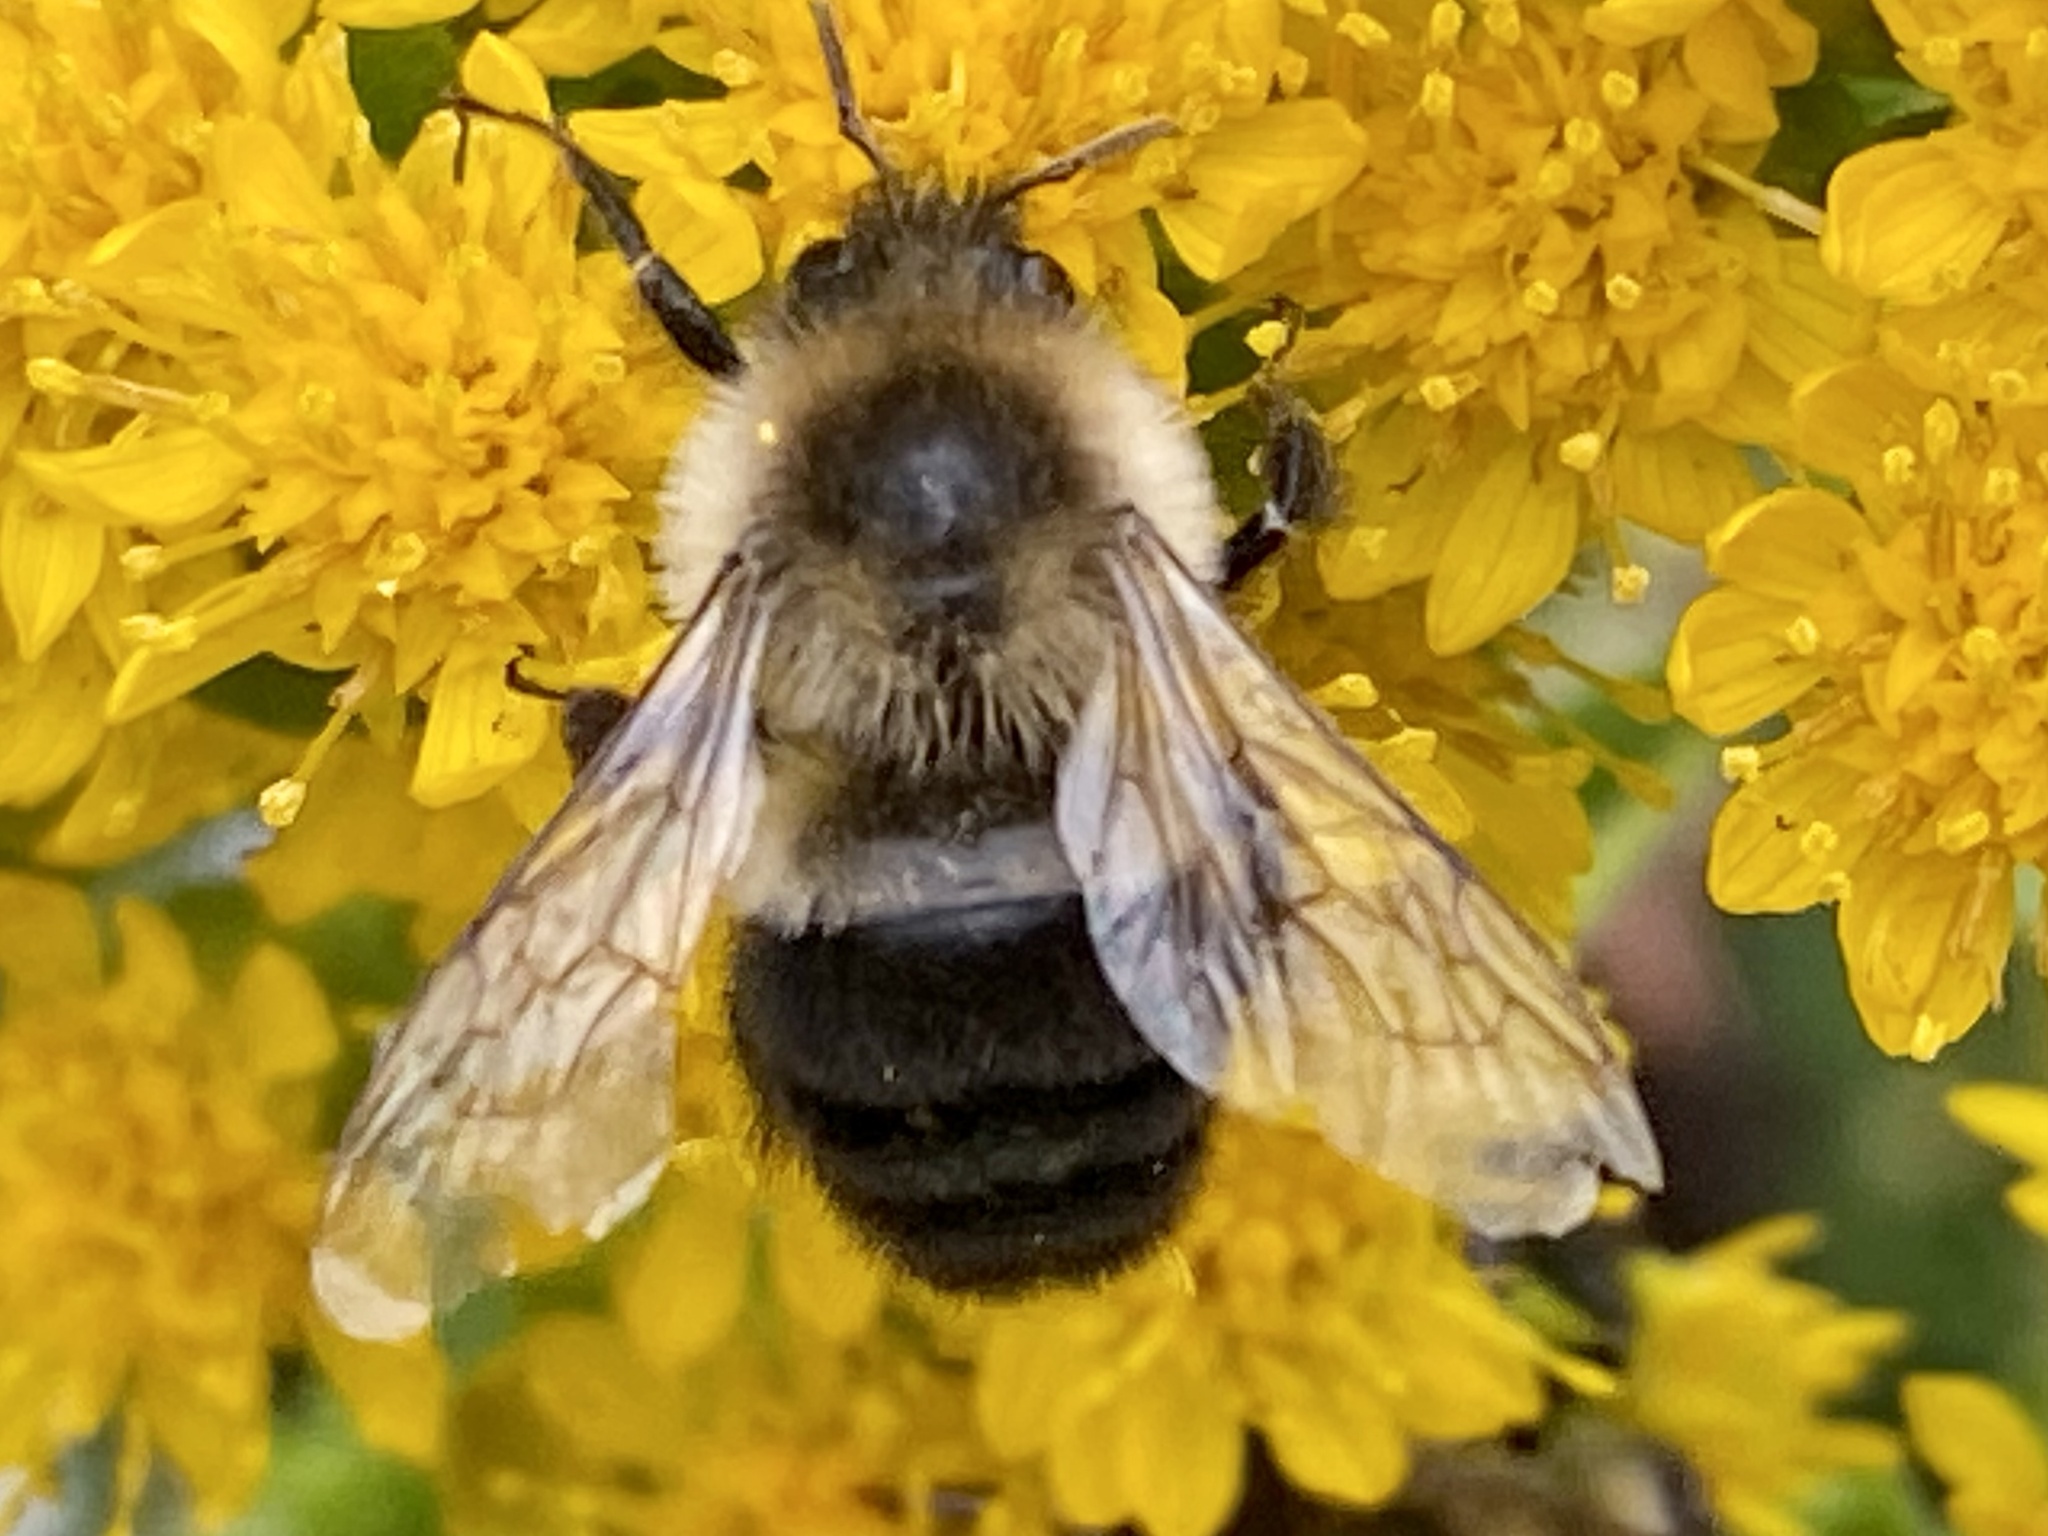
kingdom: Animalia
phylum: Arthropoda
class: Insecta
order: Hymenoptera
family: Apidae
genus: Bombus
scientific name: Bombus impatiens
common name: Common eastern bumble bee
